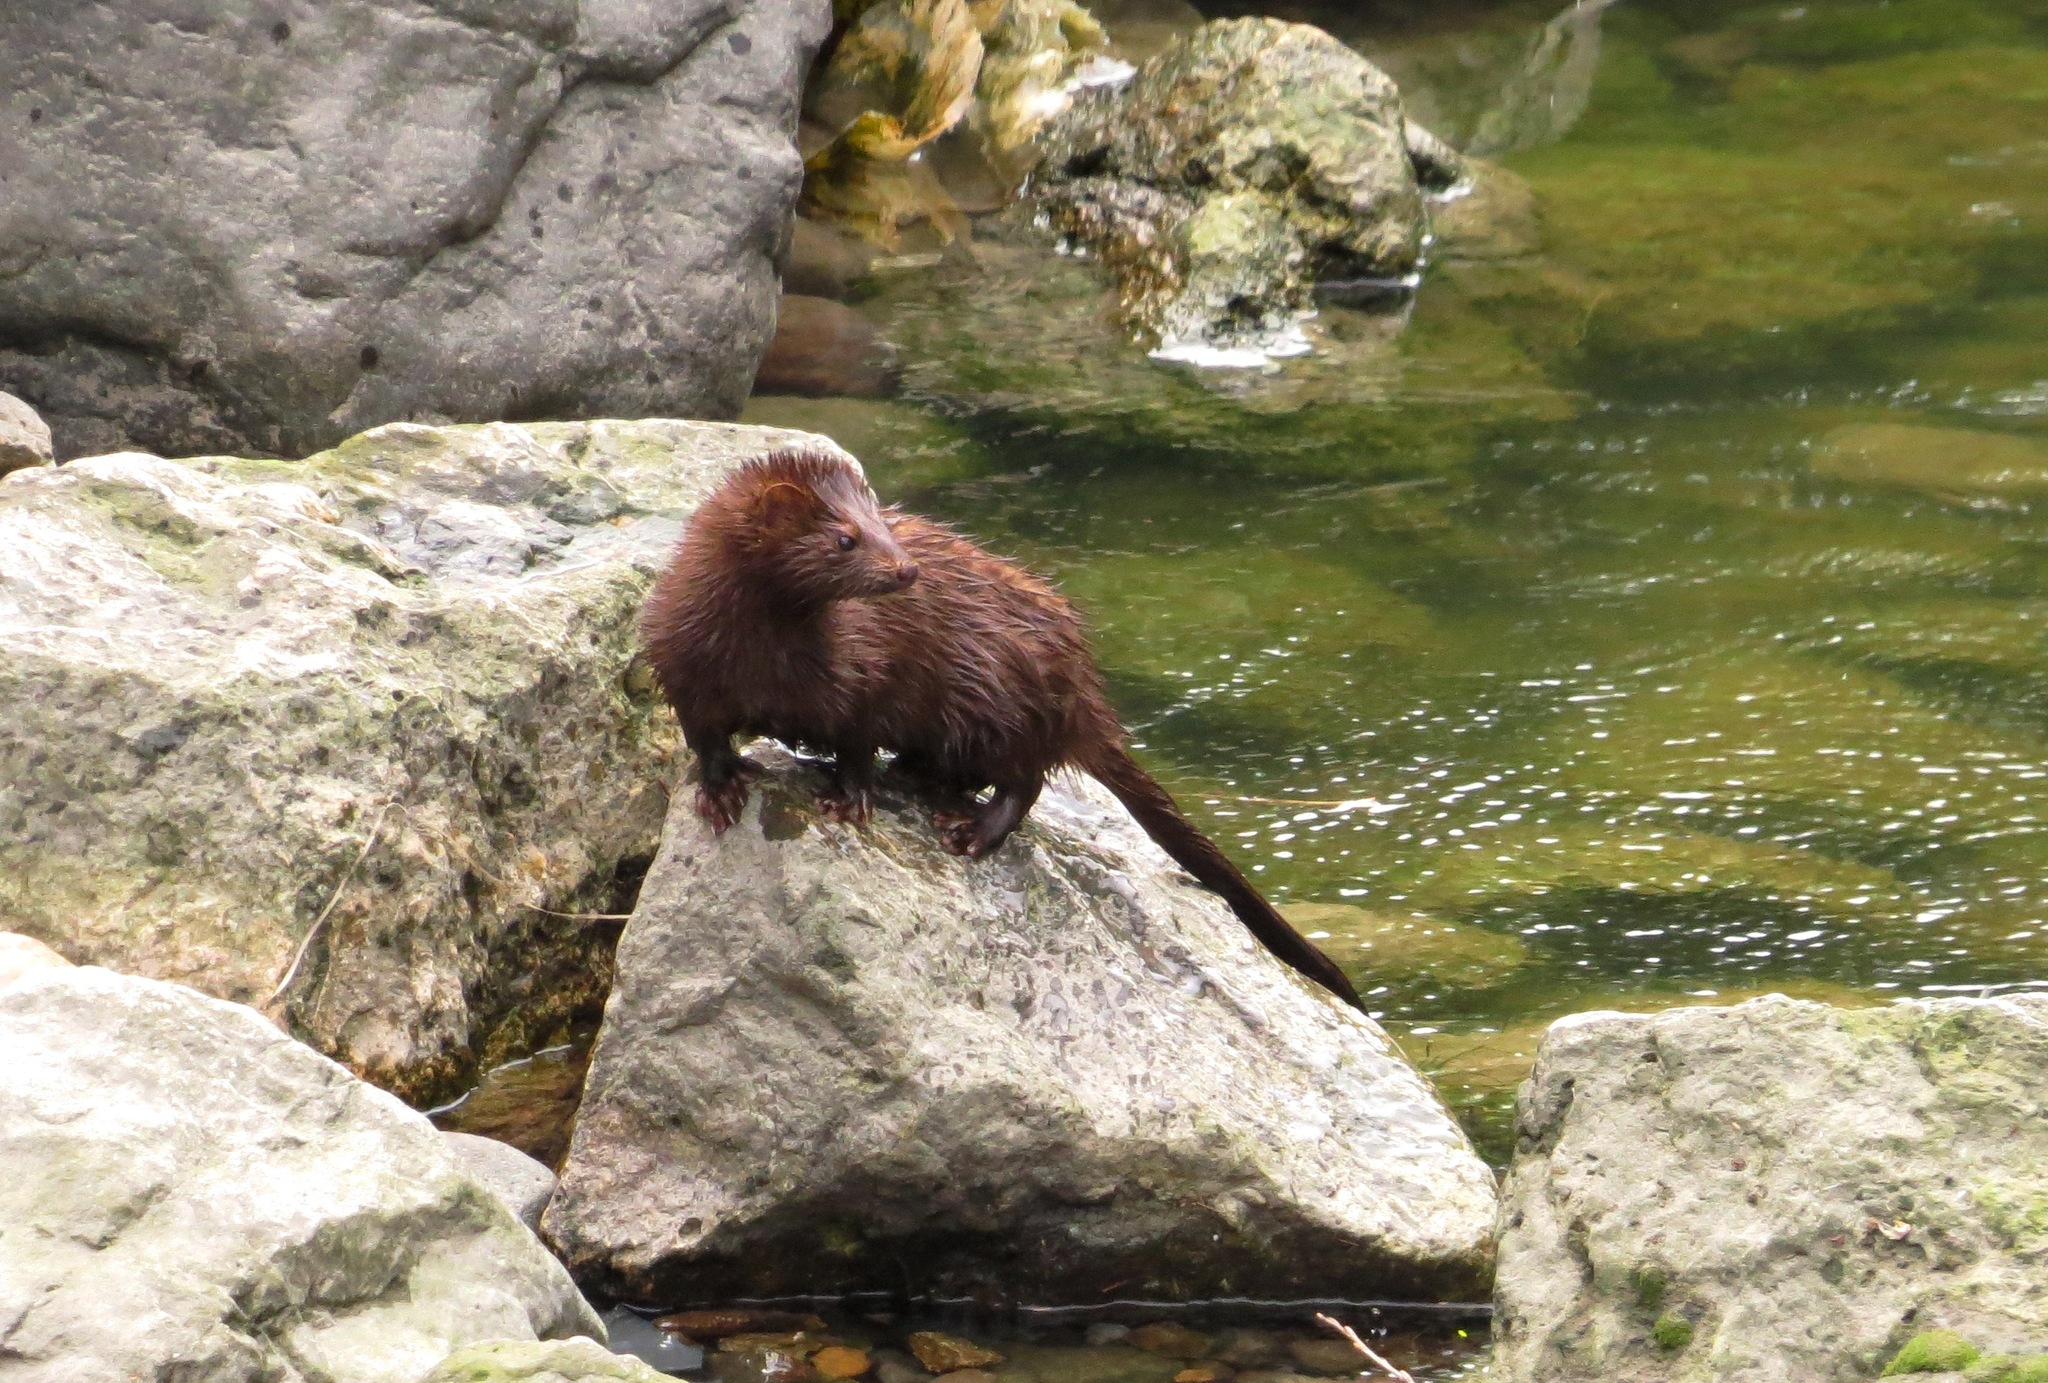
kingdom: Animalia
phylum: Chordata
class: Mammalia
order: Carnivora
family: Mustelidae
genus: Mustela
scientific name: Mustela
